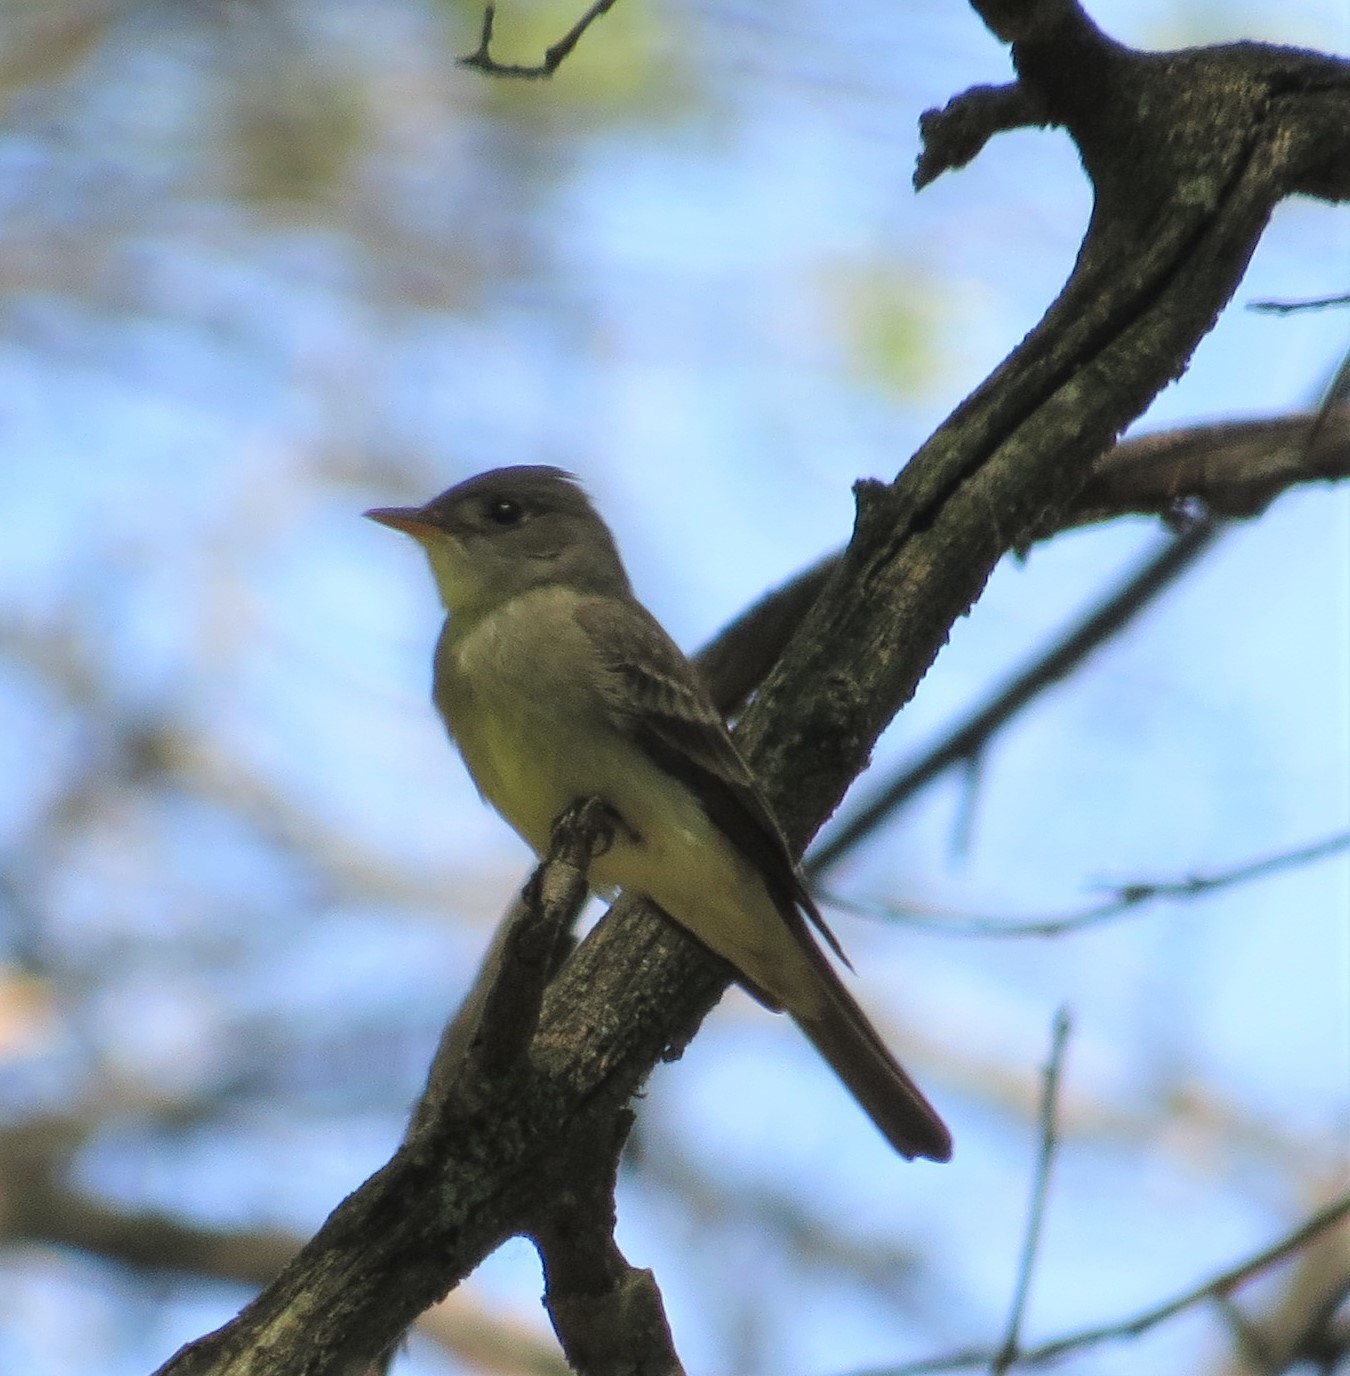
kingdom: Animalia
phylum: Chordata
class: Aves
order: Passeriformes
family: Tyrannidae
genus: Contopus
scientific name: Contopus virens
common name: Eastern wood-pewee
